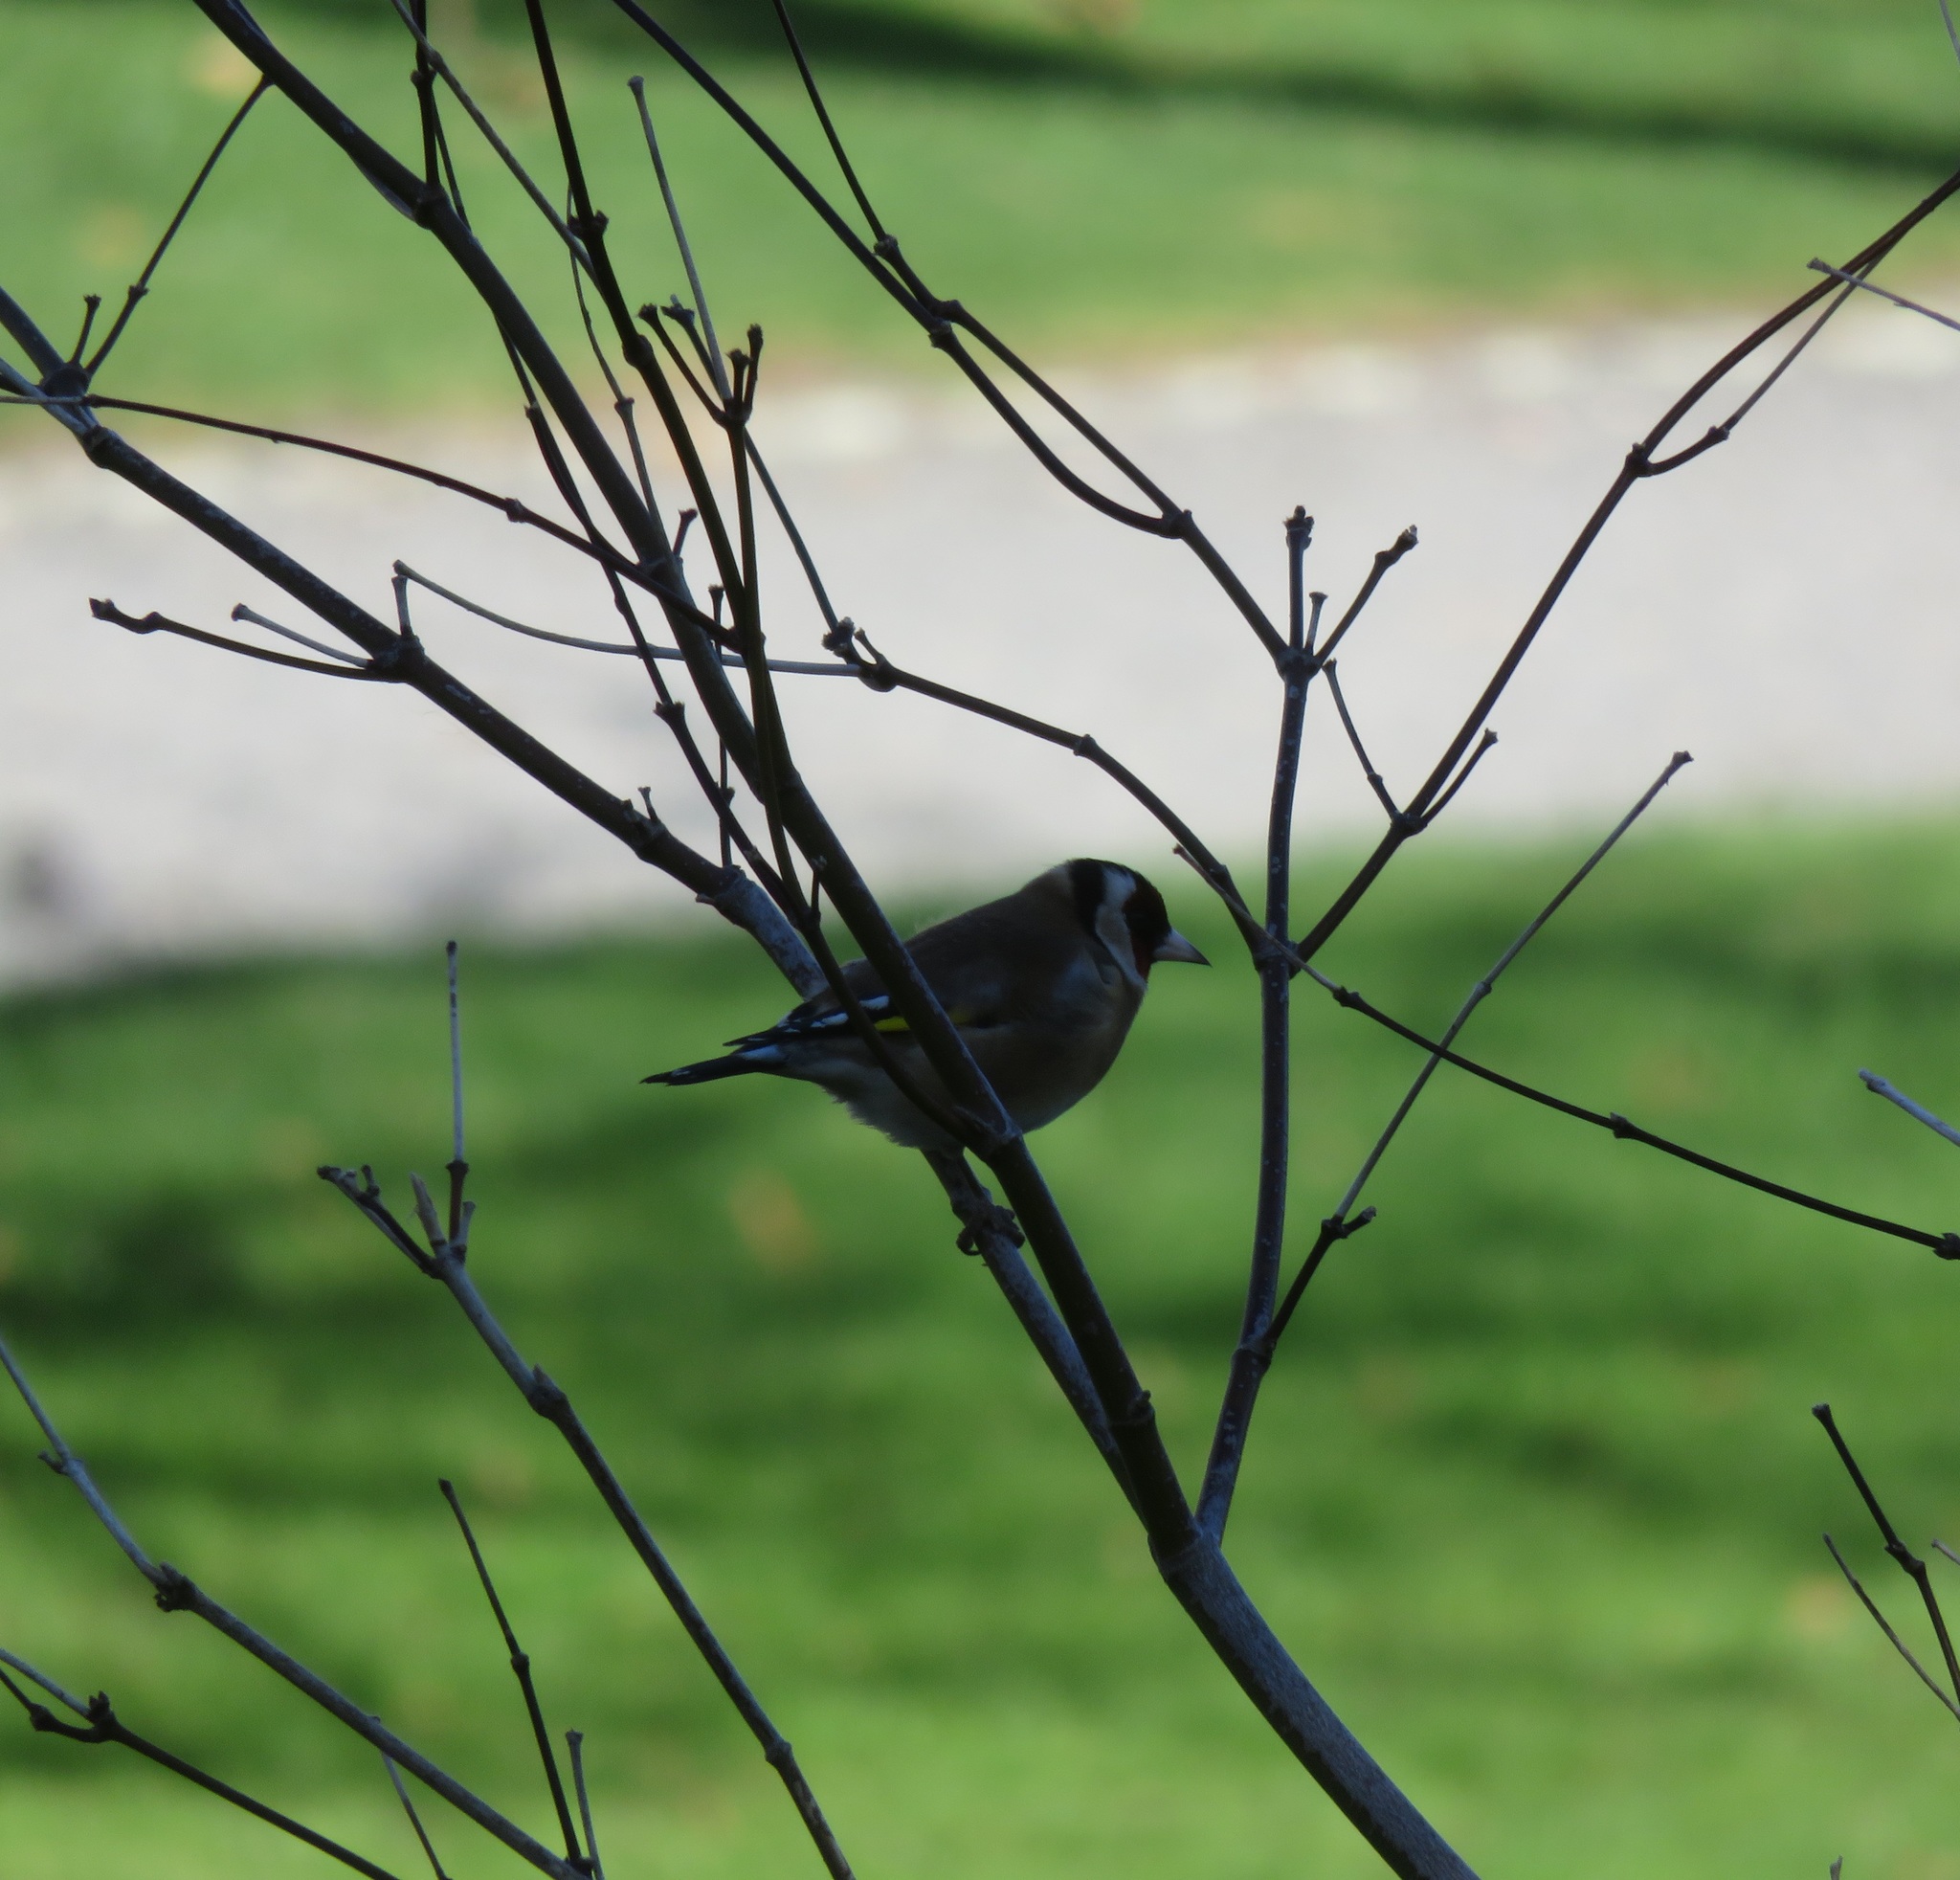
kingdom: Animalia
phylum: Chordata
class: Aves
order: Passeriformes
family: Fringillidae
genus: Carduelis
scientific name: Carduelis carduelis
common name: European goldfinch
